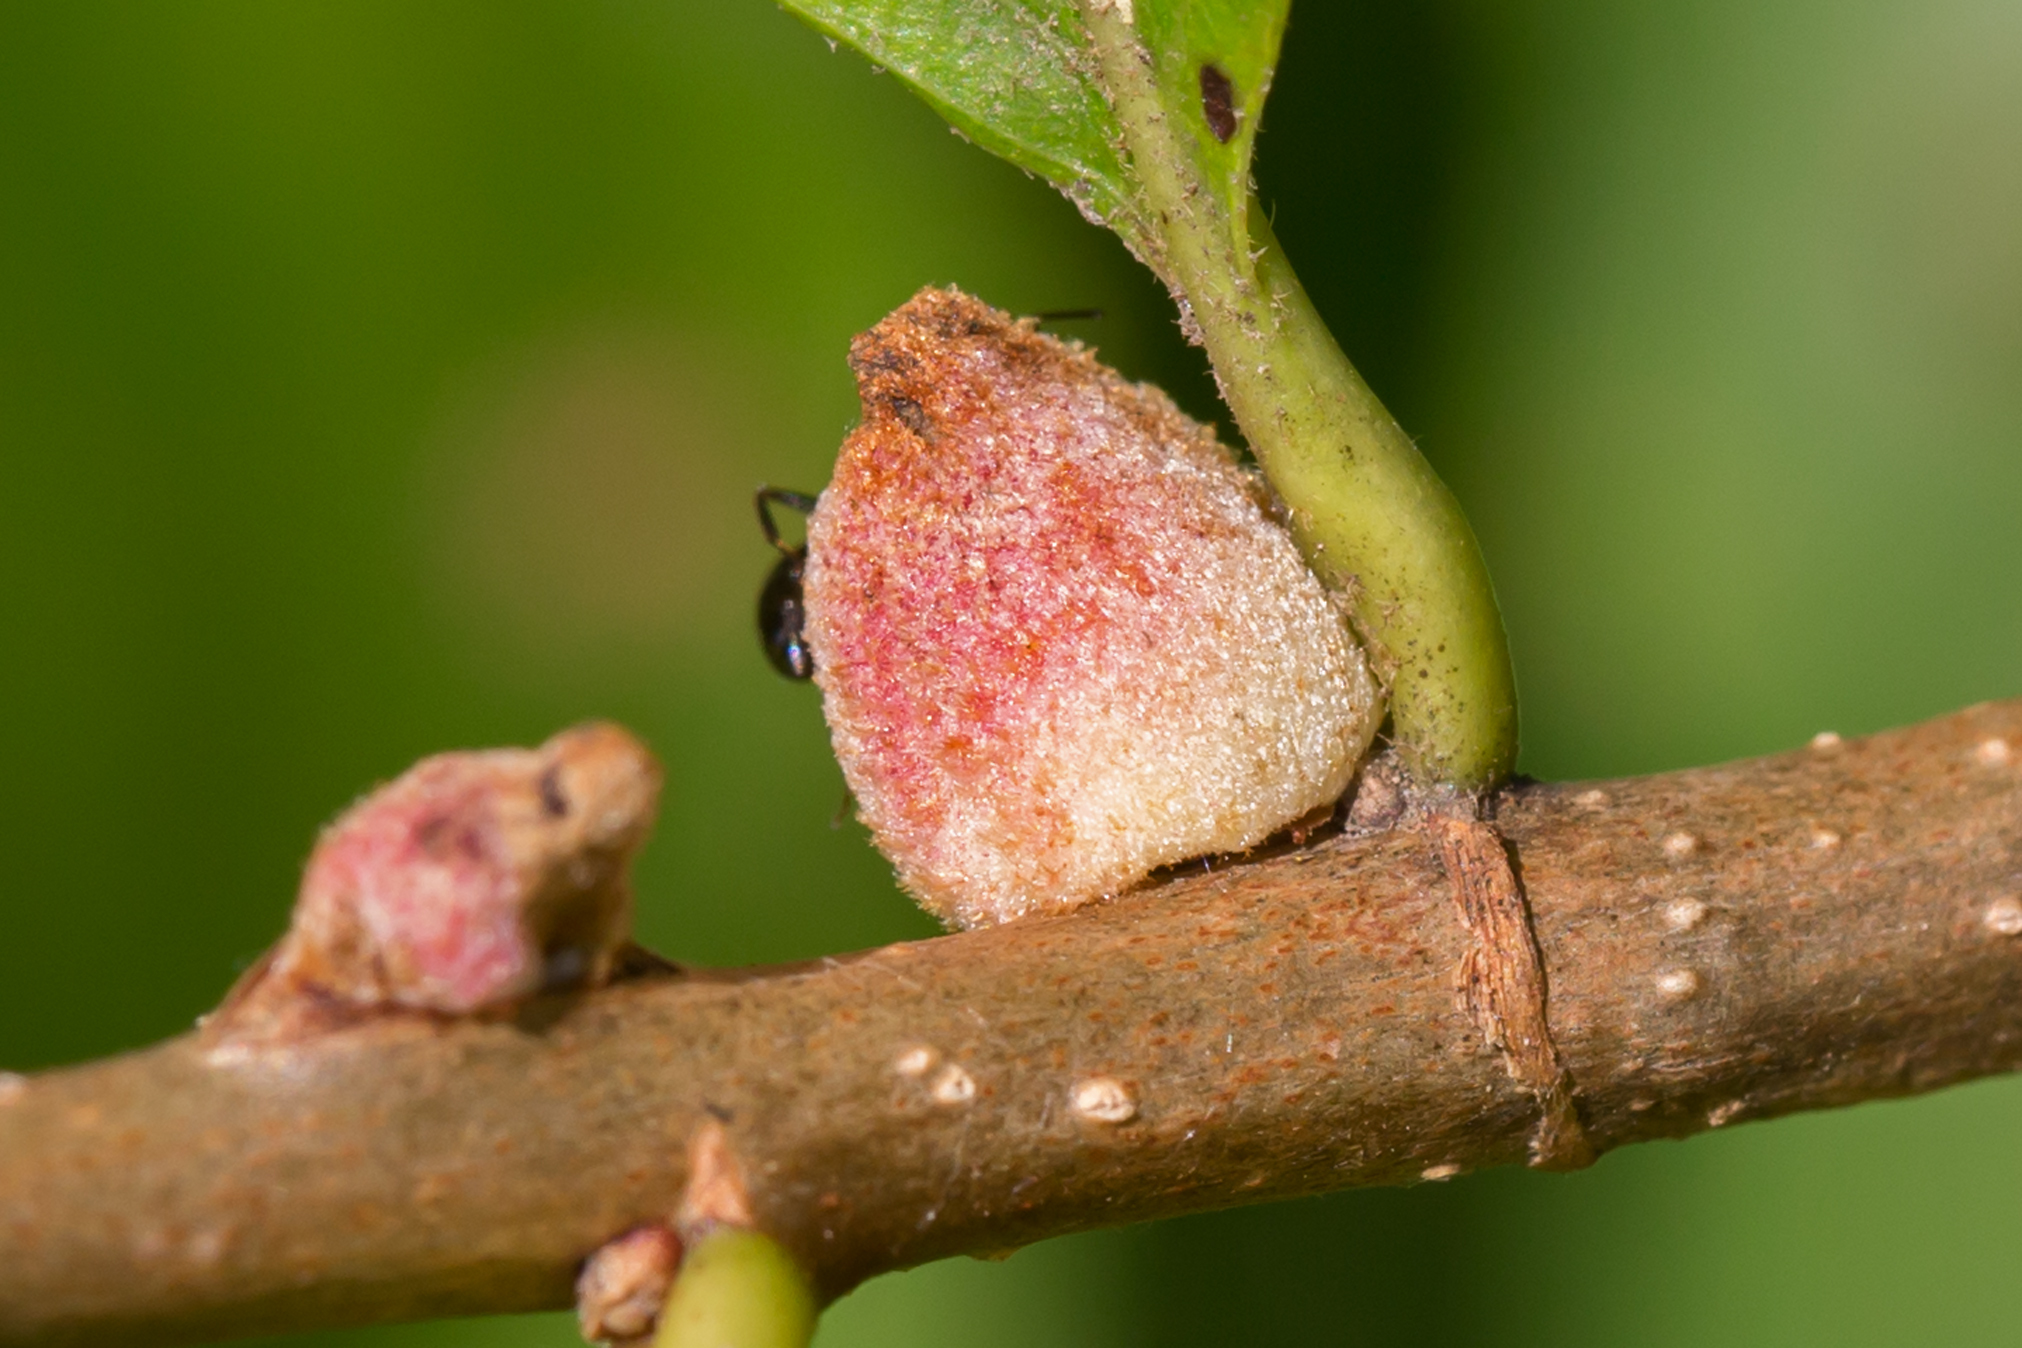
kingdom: Animalia
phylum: Arthropoda
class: Insecta
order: Hymenoptera
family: Cynipidae
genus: Disholcaspis
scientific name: Disholcaspis
